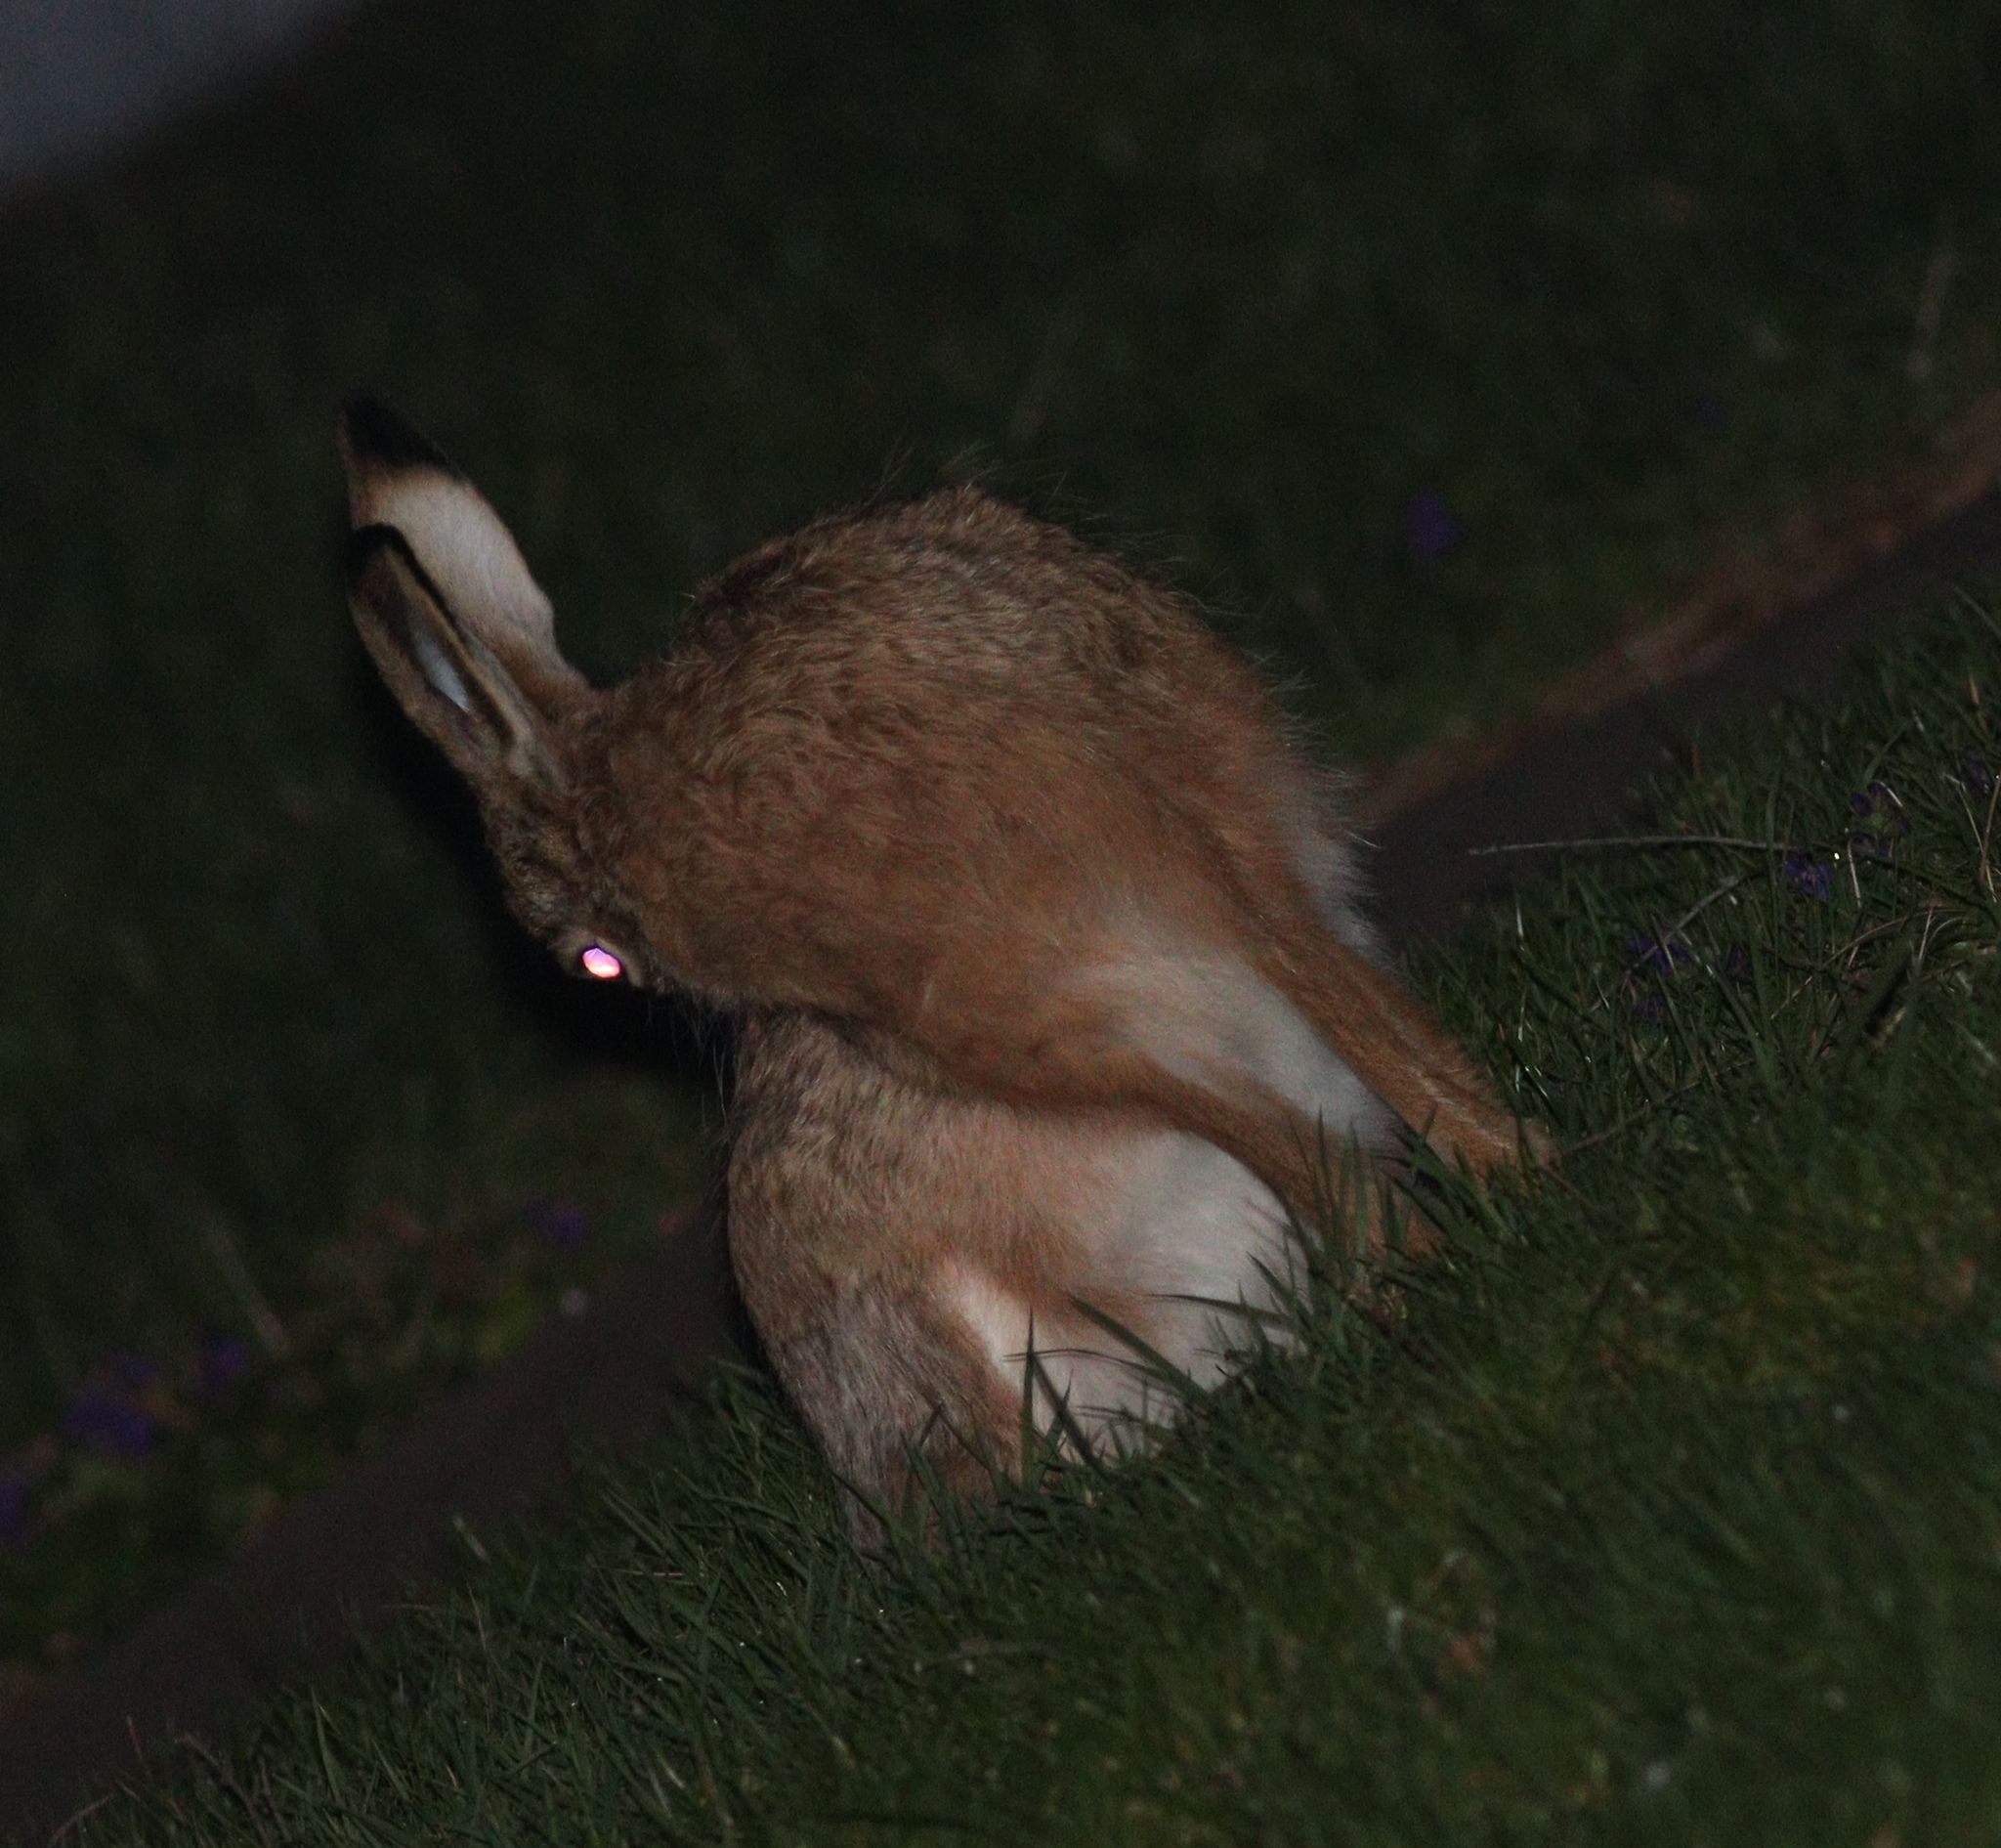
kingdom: Animalia
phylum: Chordata
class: Mammalia
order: Lagomorpha
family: Leporidae
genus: Lepus
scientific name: Lepus europaeus
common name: European hare
